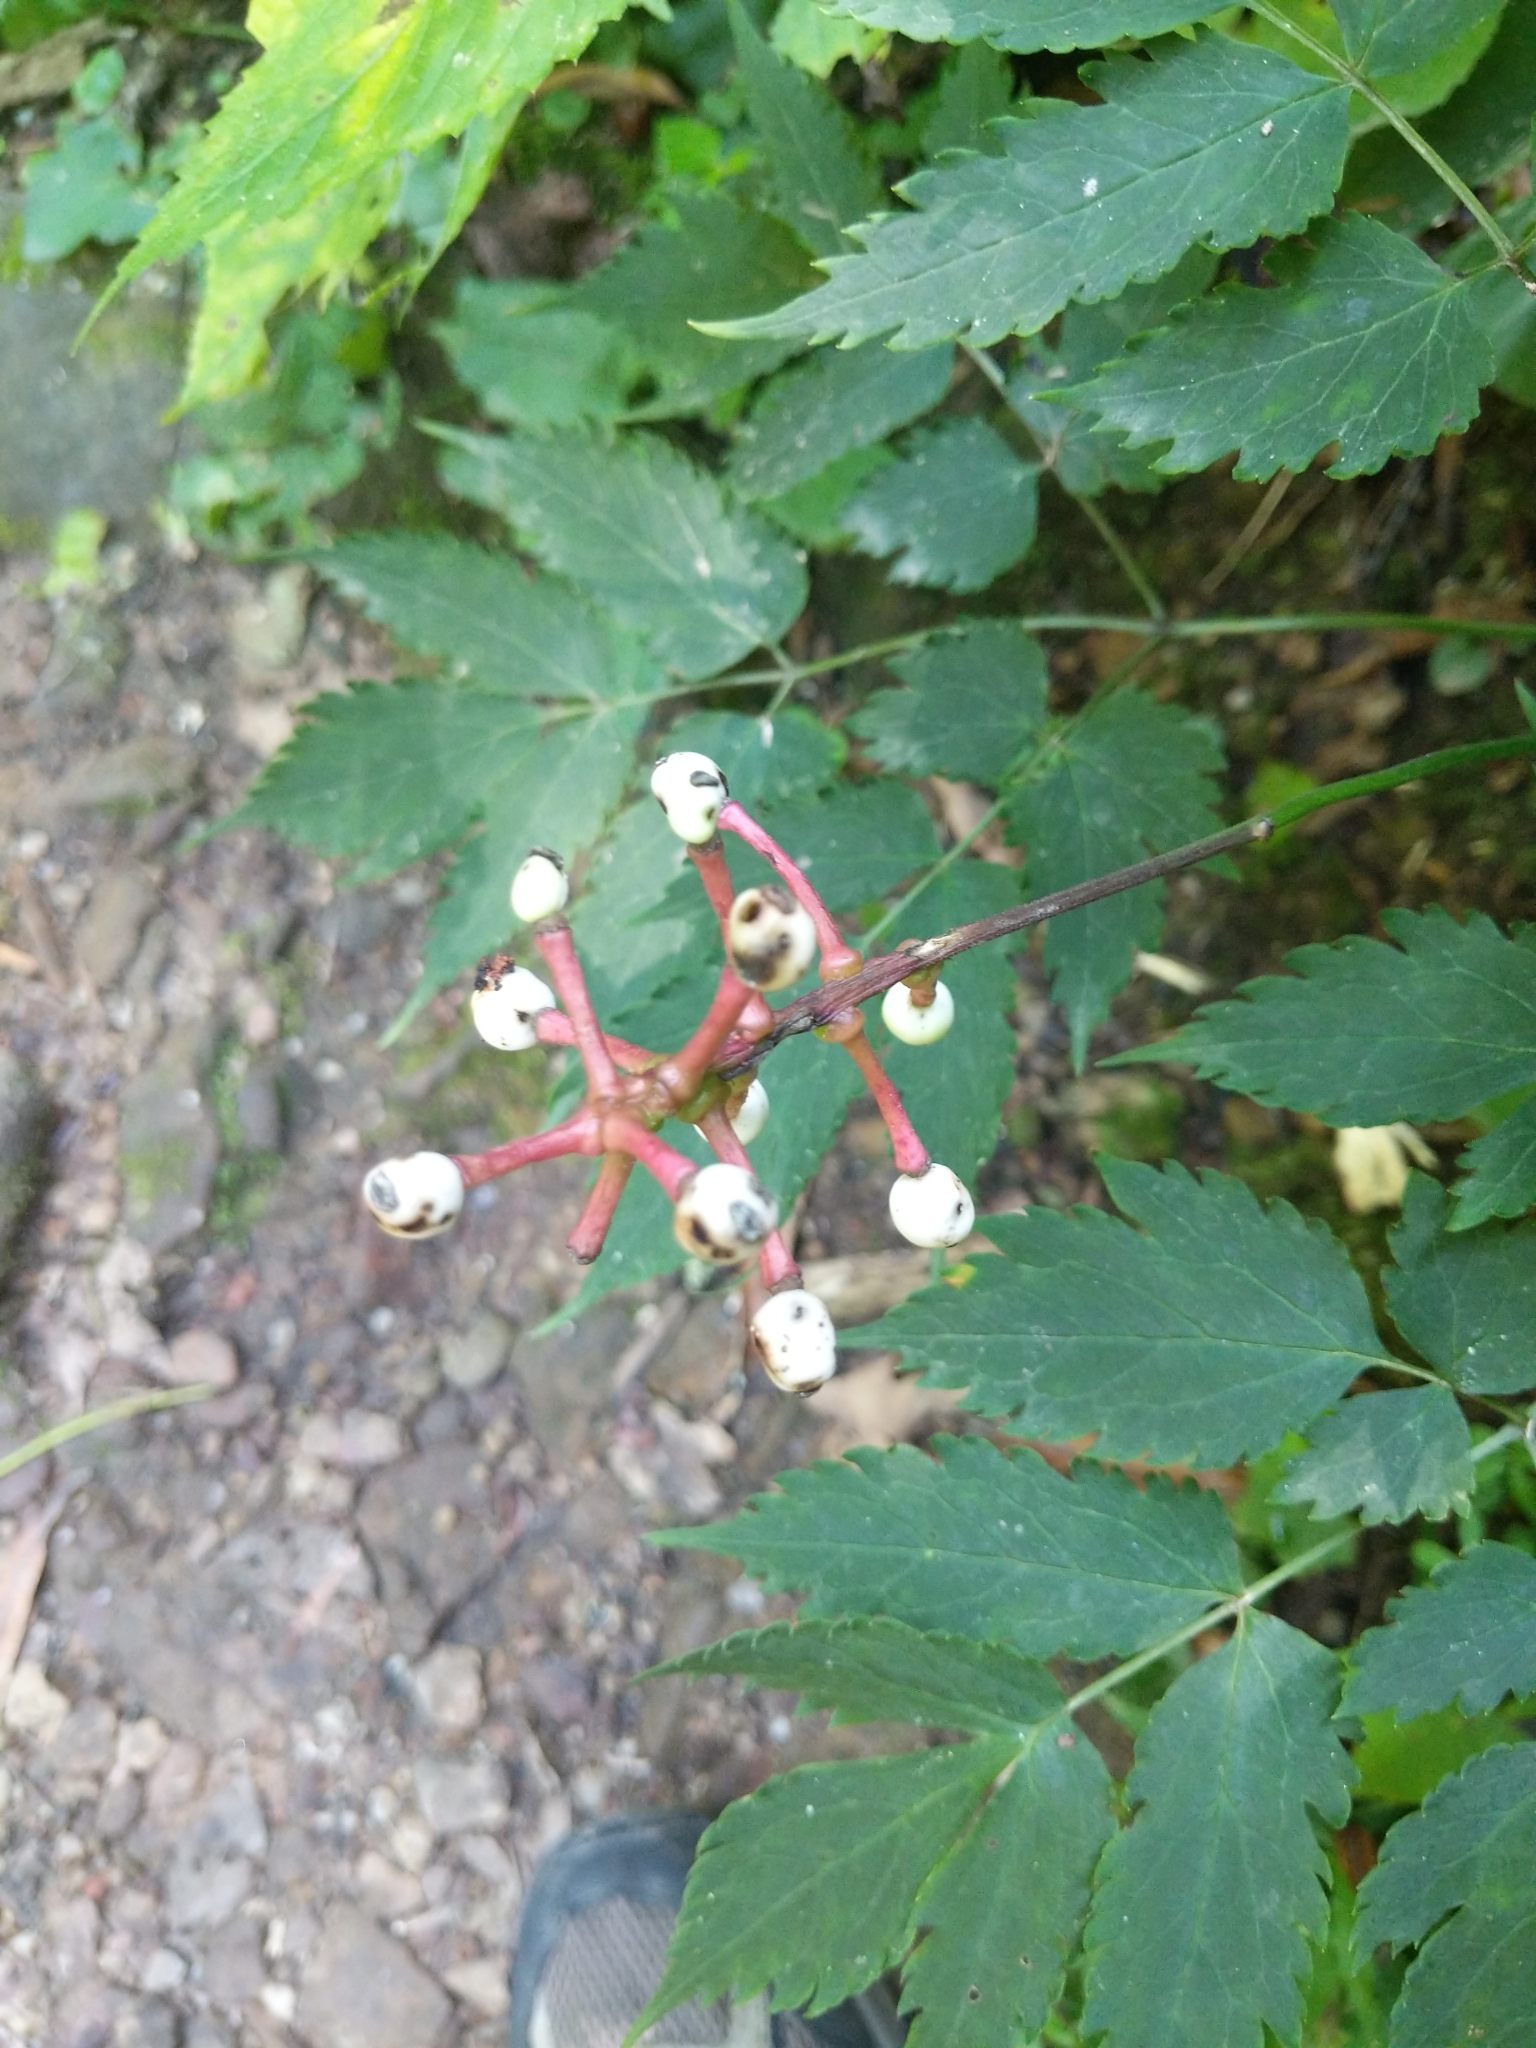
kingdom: Plantae
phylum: Tracheophyta
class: Magnoliopsida
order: Ranunculales
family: Ranunculaceae
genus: Actaea
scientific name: Actaea pachypoda
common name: Doll's-eyes
